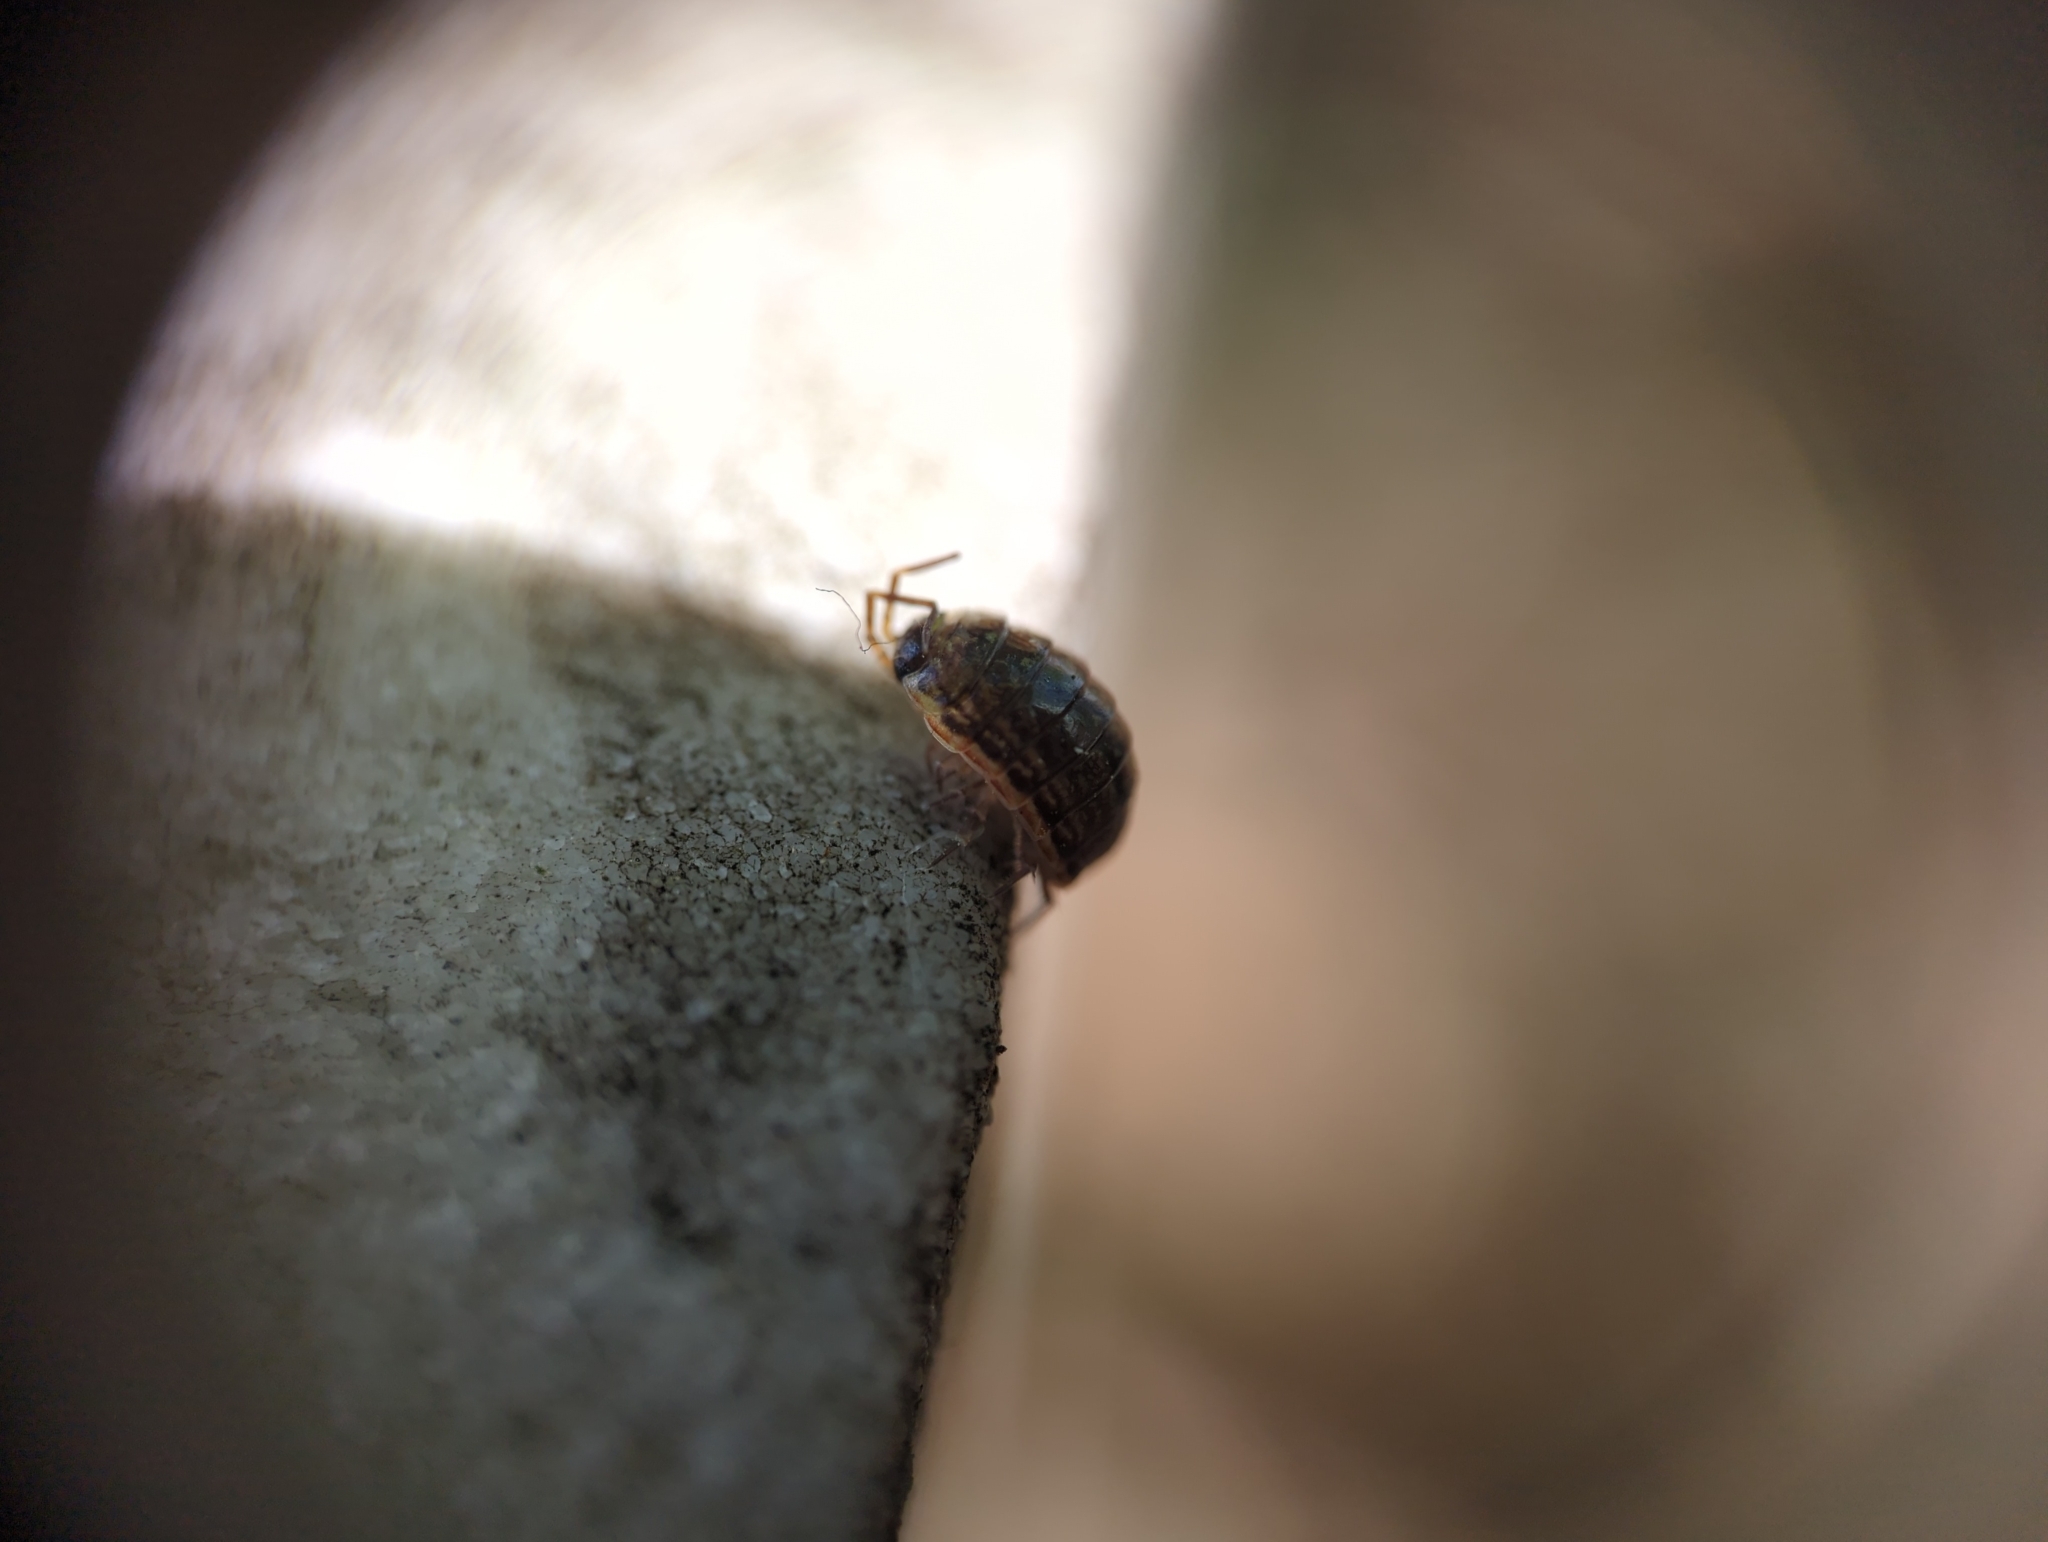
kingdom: Animalia
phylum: Arthropoda
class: Malacostraca
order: Isopoda
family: Philosciidae
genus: Philoscia
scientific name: Philoscia muscorum
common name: Common striped woodlouse
